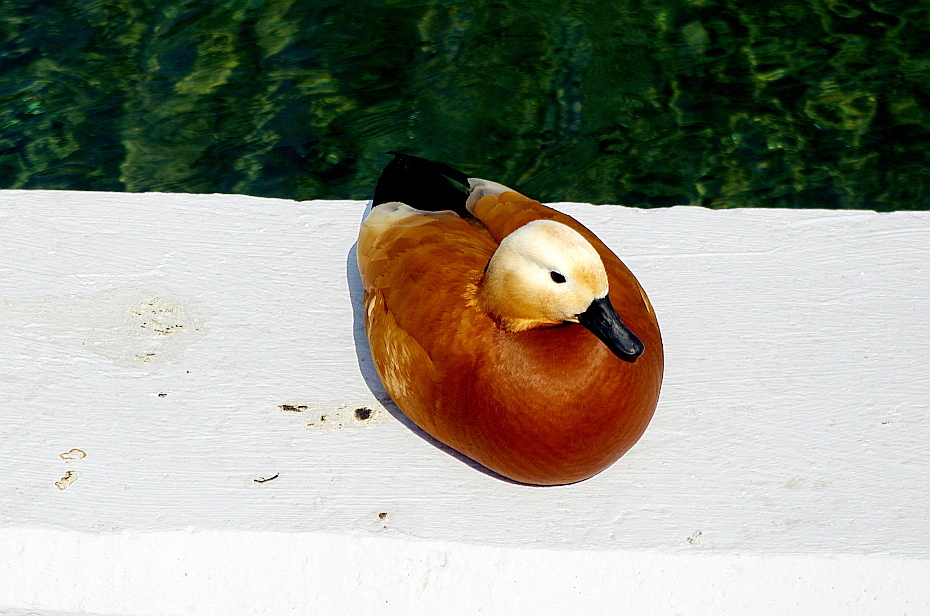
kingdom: Animalia
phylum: Chordata
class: Aves
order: Anseriformes
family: Anatidae
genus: Tadorna
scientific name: Tadorna ferruginea
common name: Ruddy shelduck
